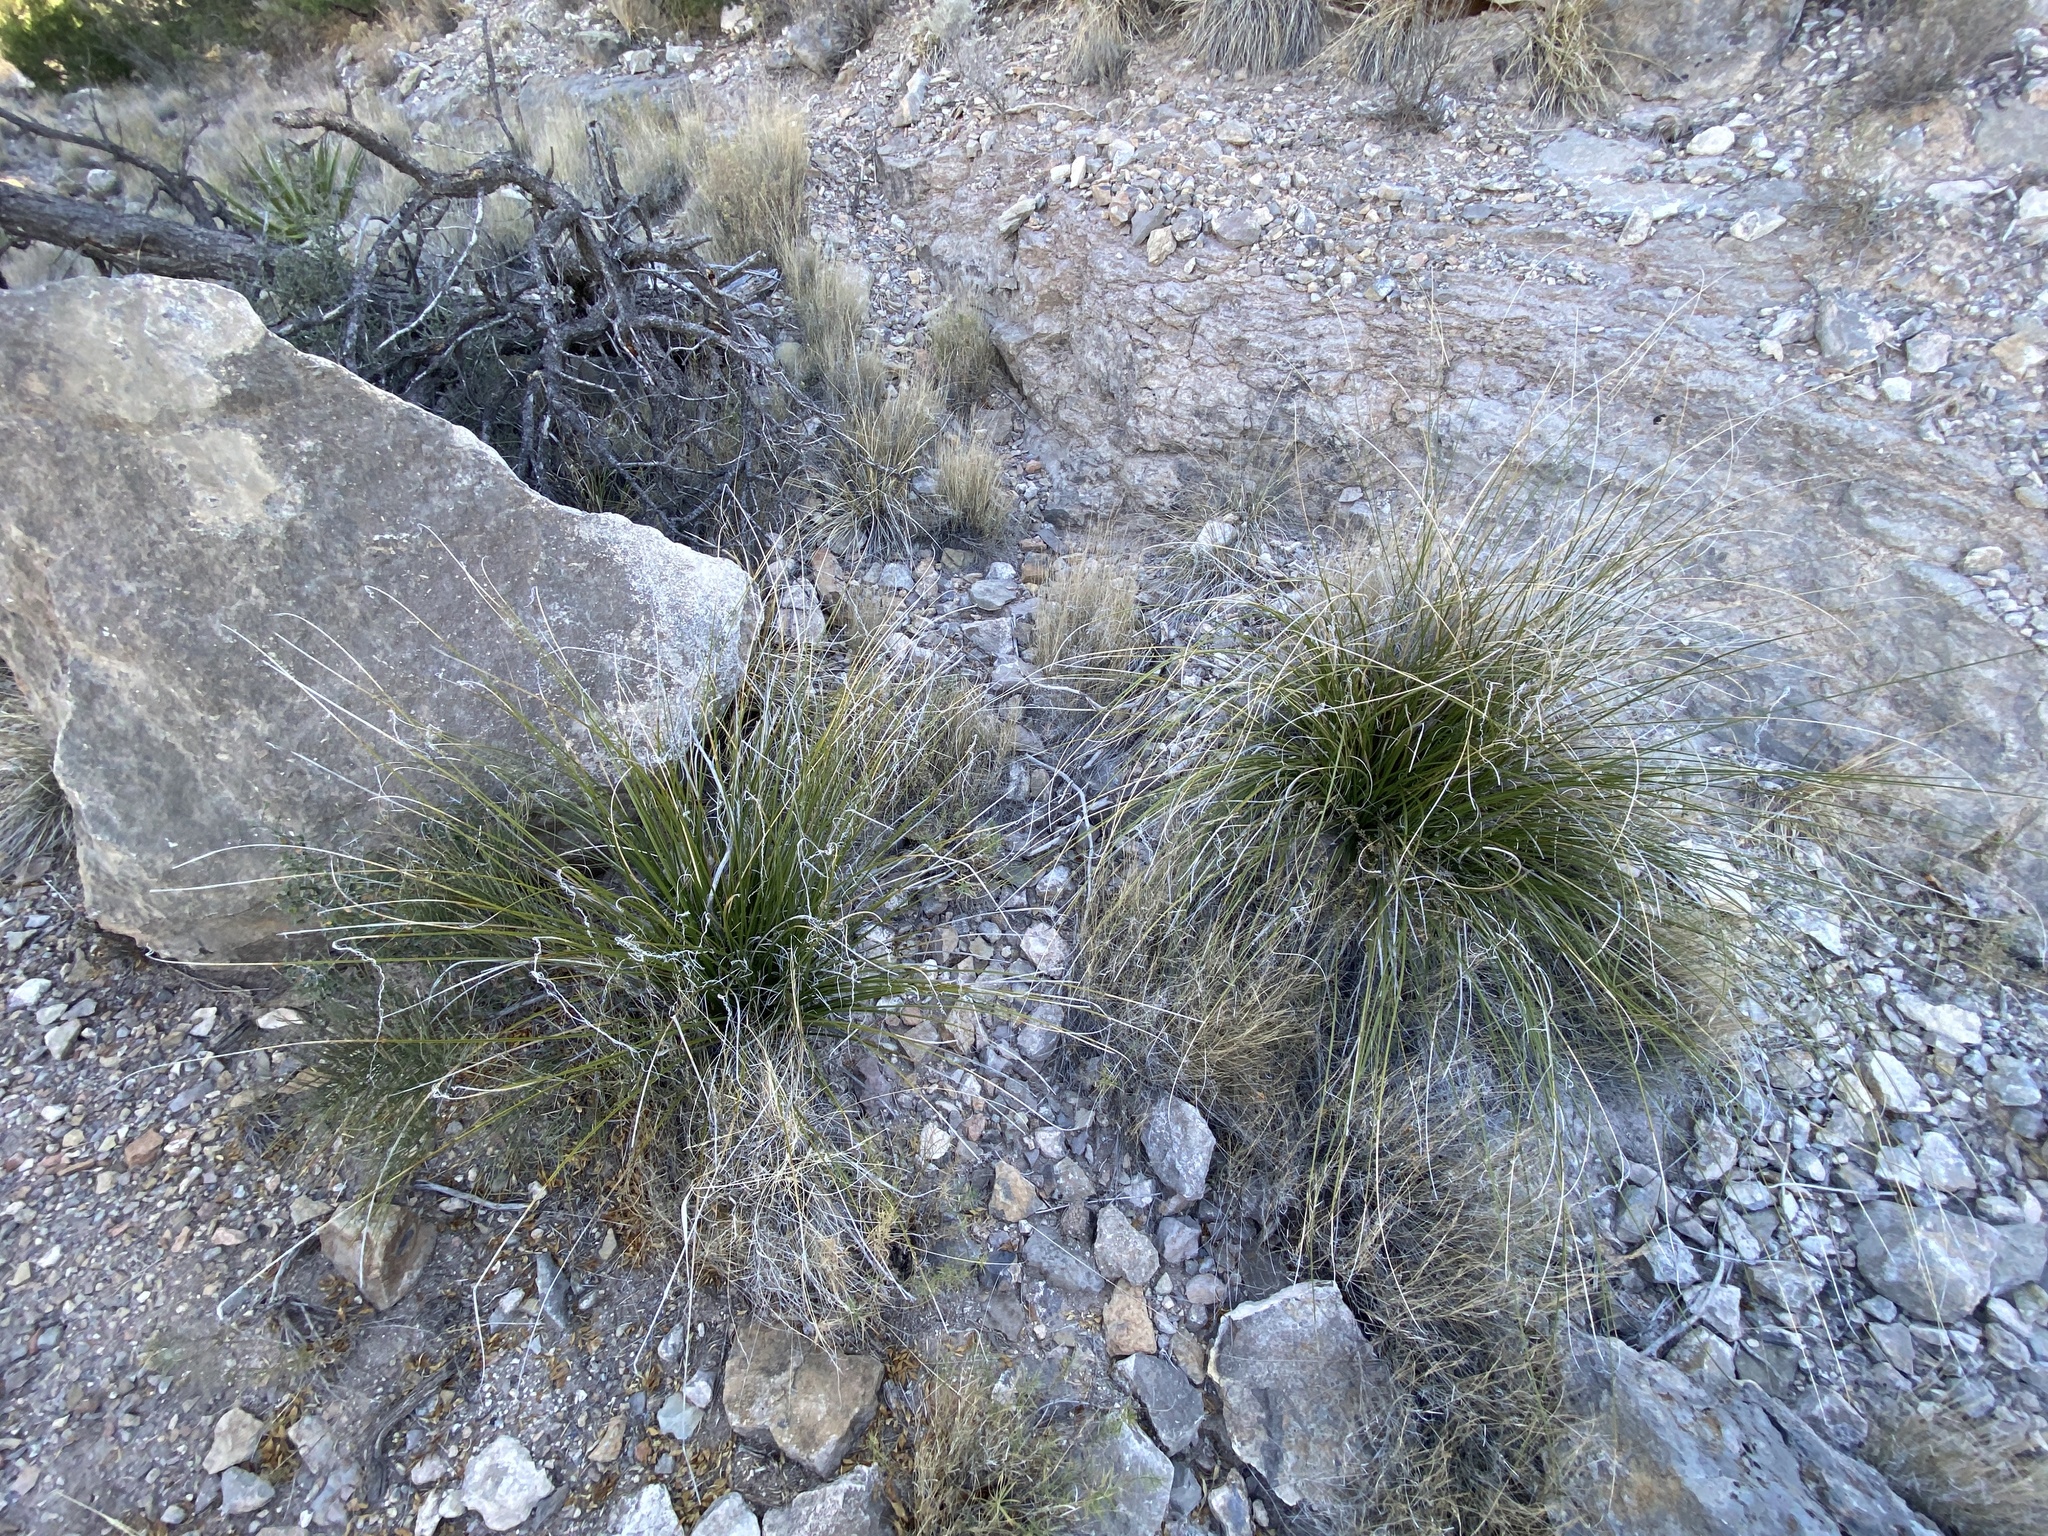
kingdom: Plantae
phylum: Tracheophyta
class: Liliopsida
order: Asparagales
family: Asparagaceae
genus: Nolina
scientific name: Nolina texana
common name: Texas sacahuiste
